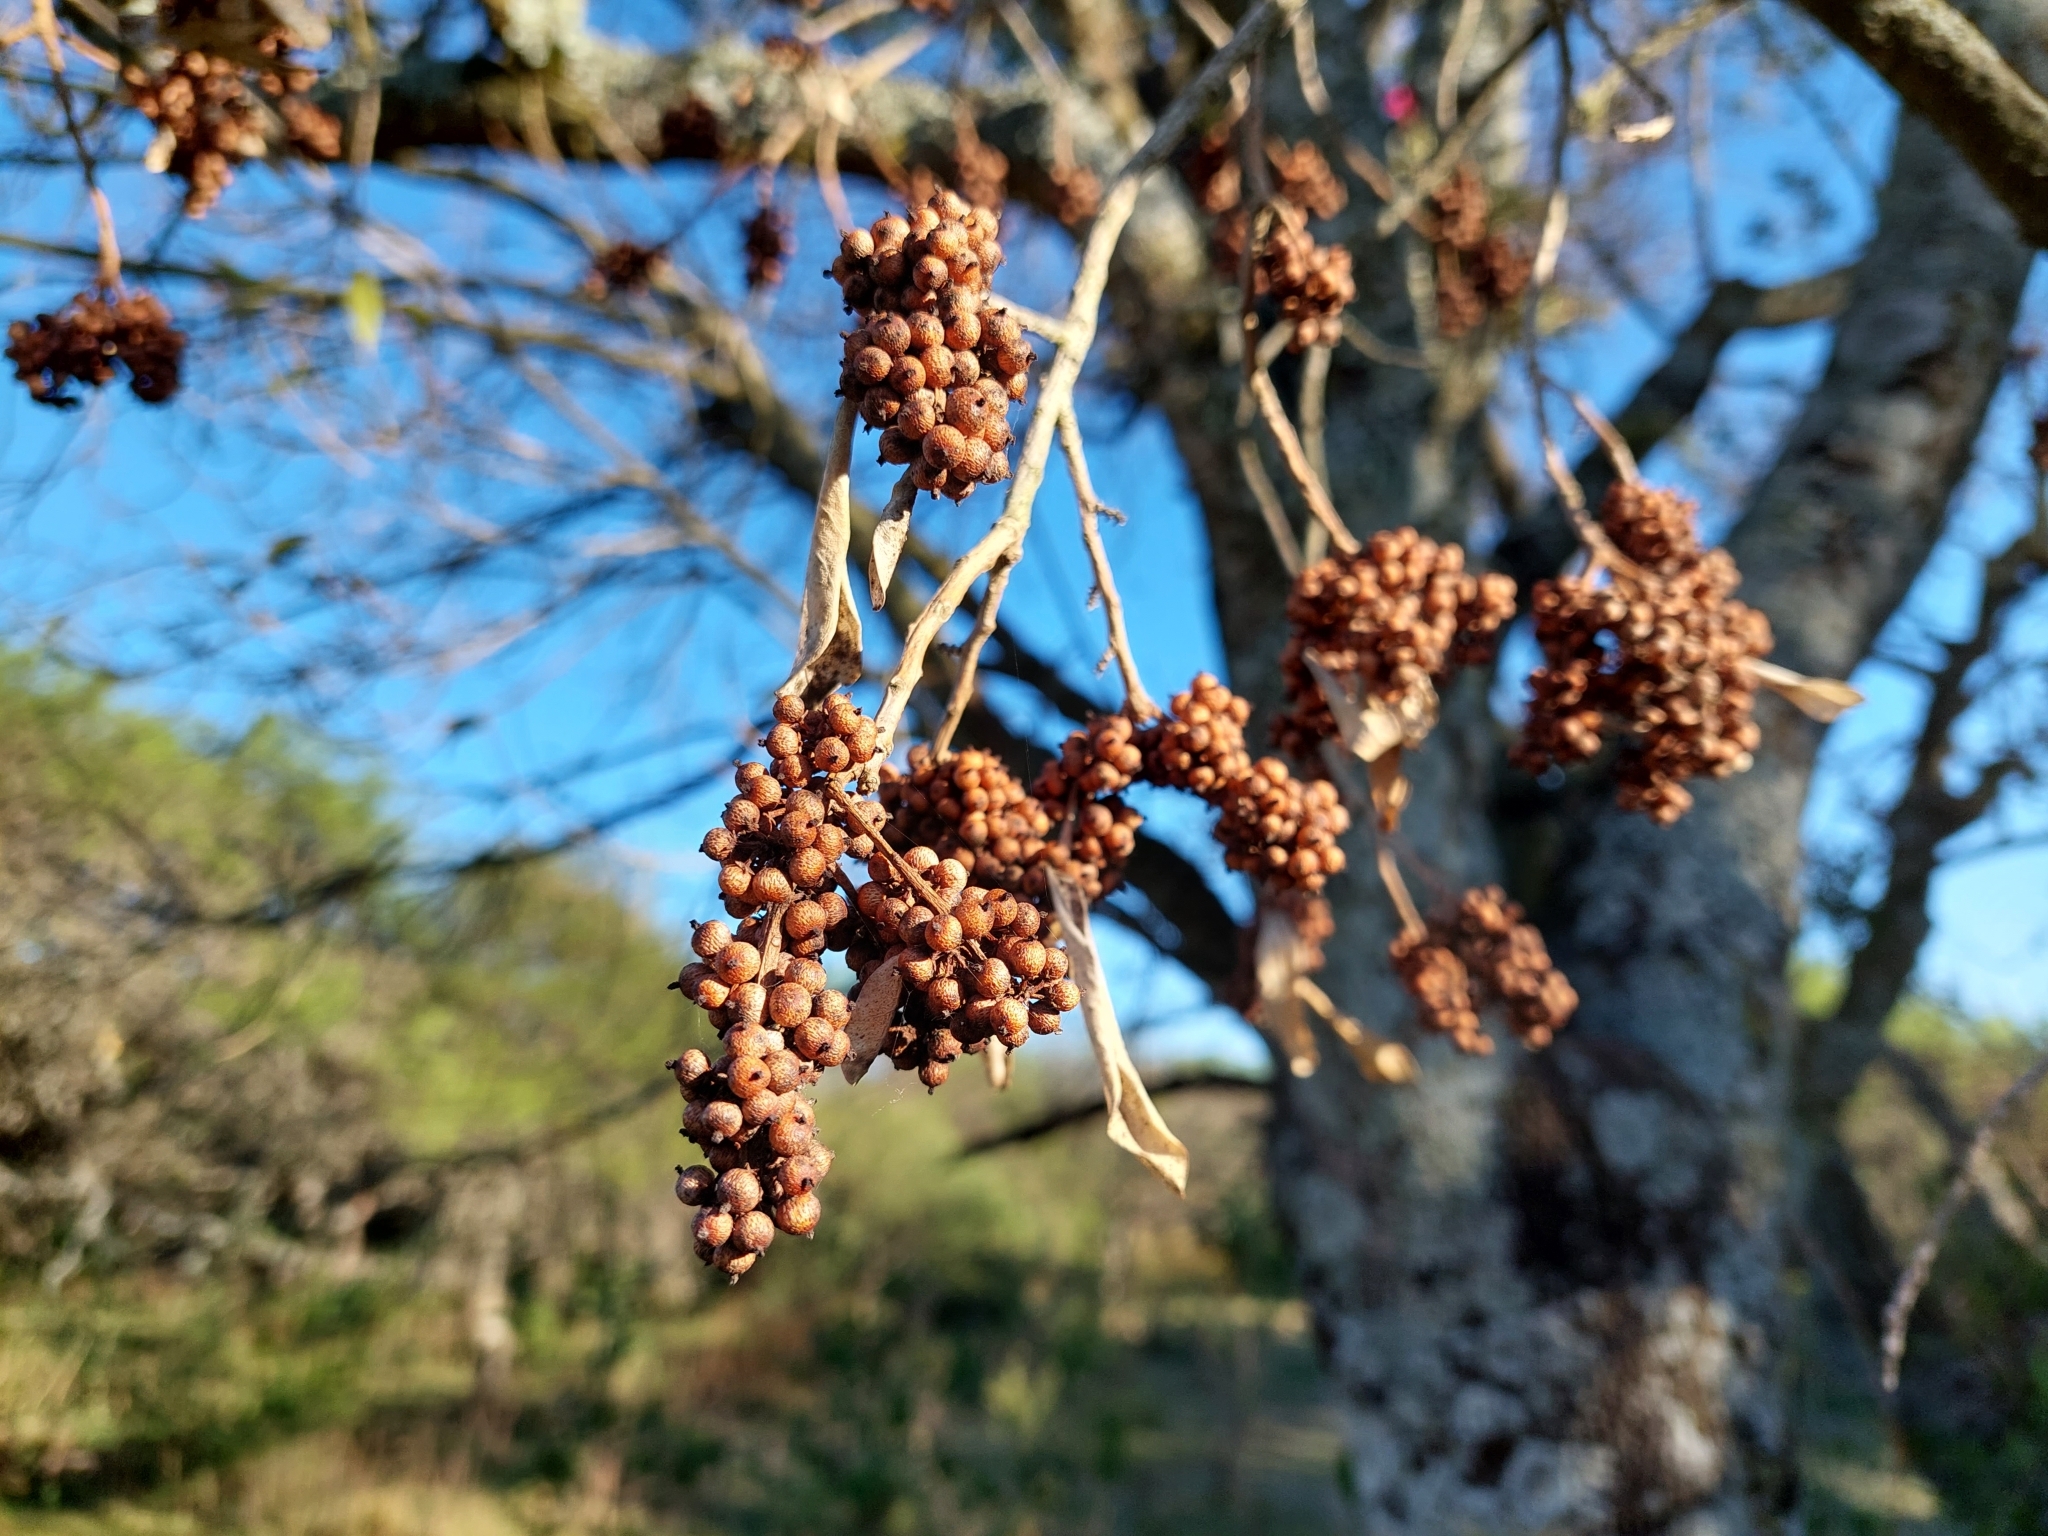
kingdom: Plantae
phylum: Tracheophyta
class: Magnoliopsida
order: Ericales
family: Primulaceae
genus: Myrsine
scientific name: Myrsine laetevirens
